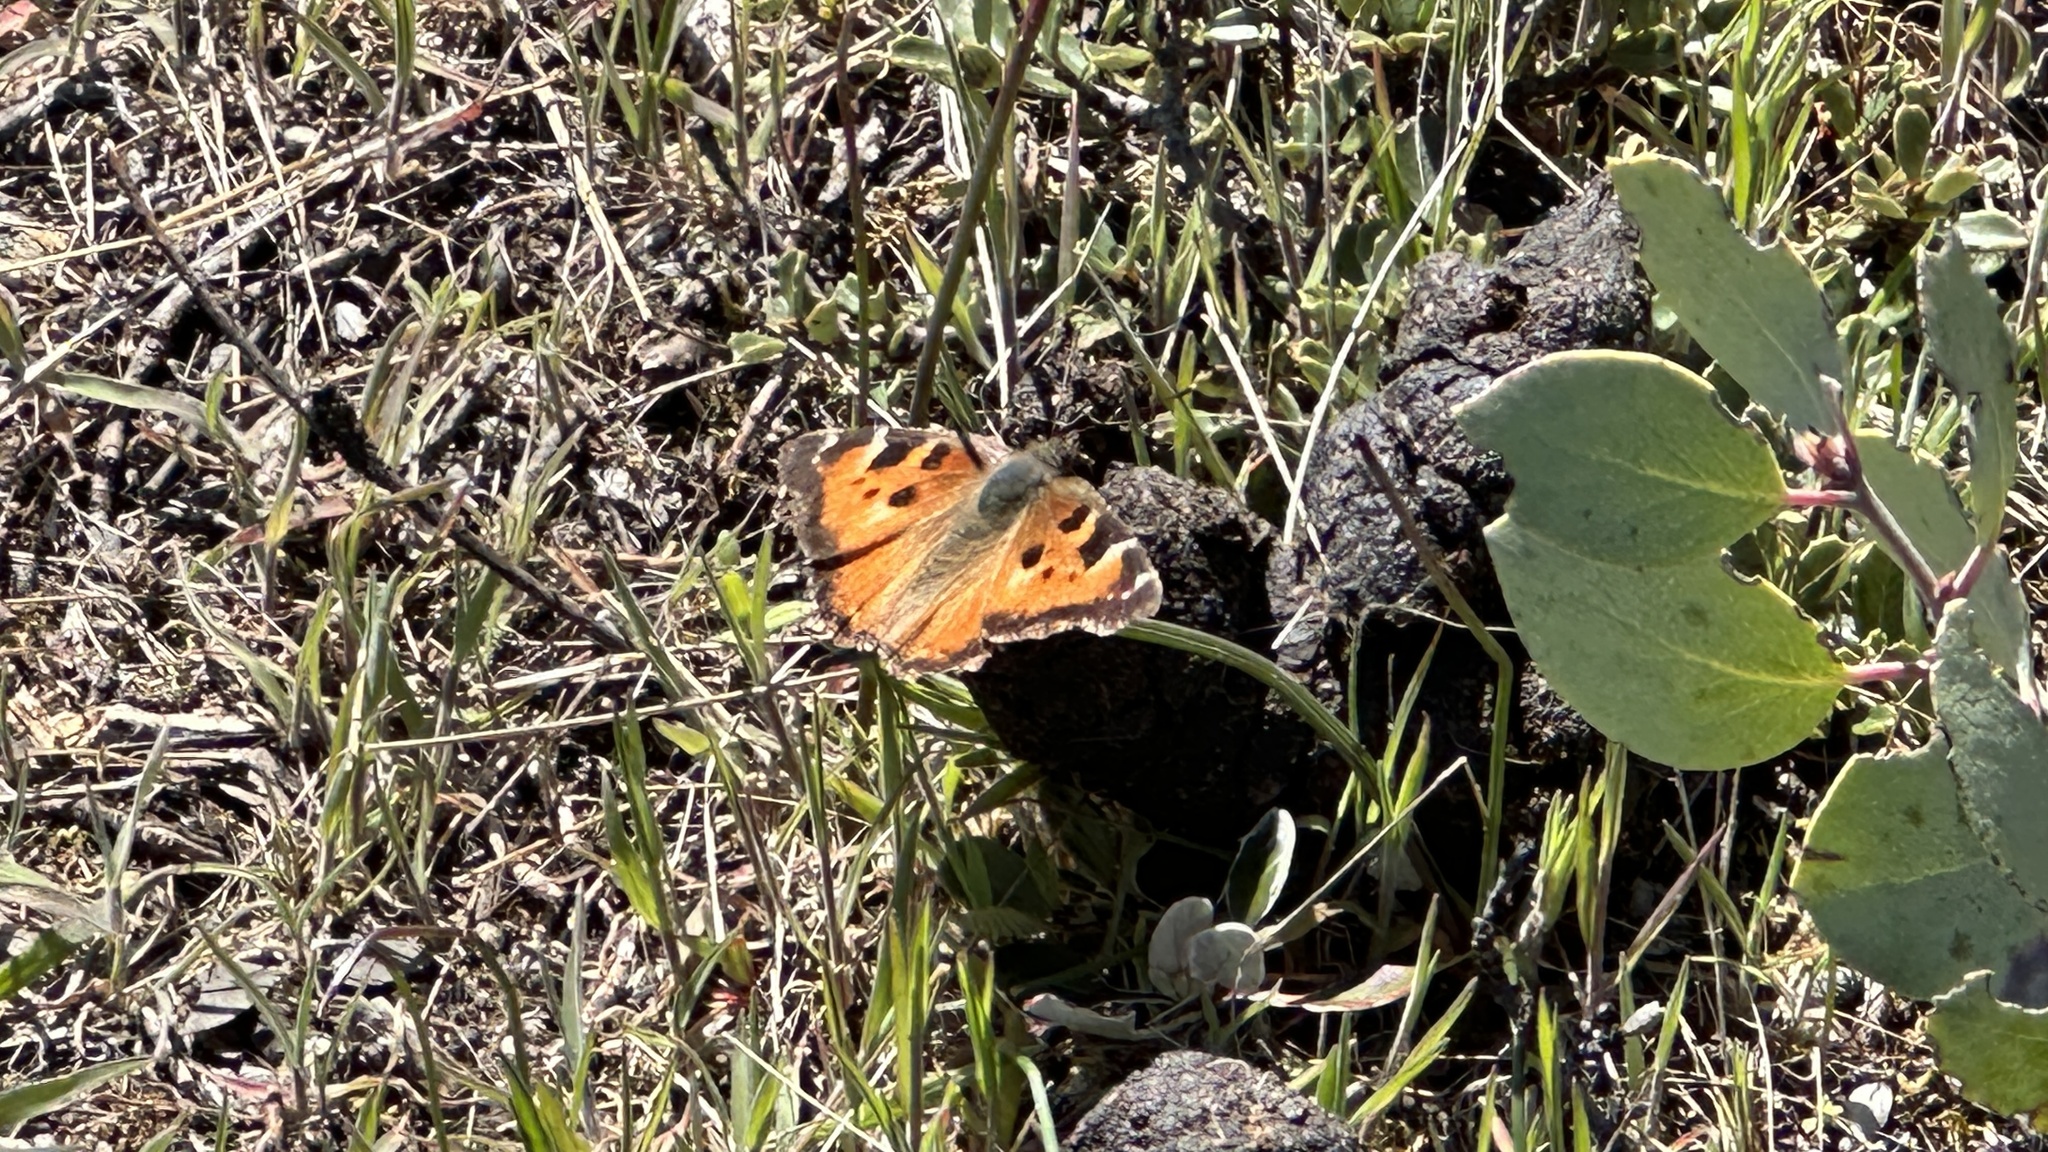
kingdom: Animalia
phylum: Arthropoda
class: Insecta
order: Lepidoptera
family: Nymphalidae
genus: Nymphalis
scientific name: Nymphalis californica
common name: California tortoiseshell
